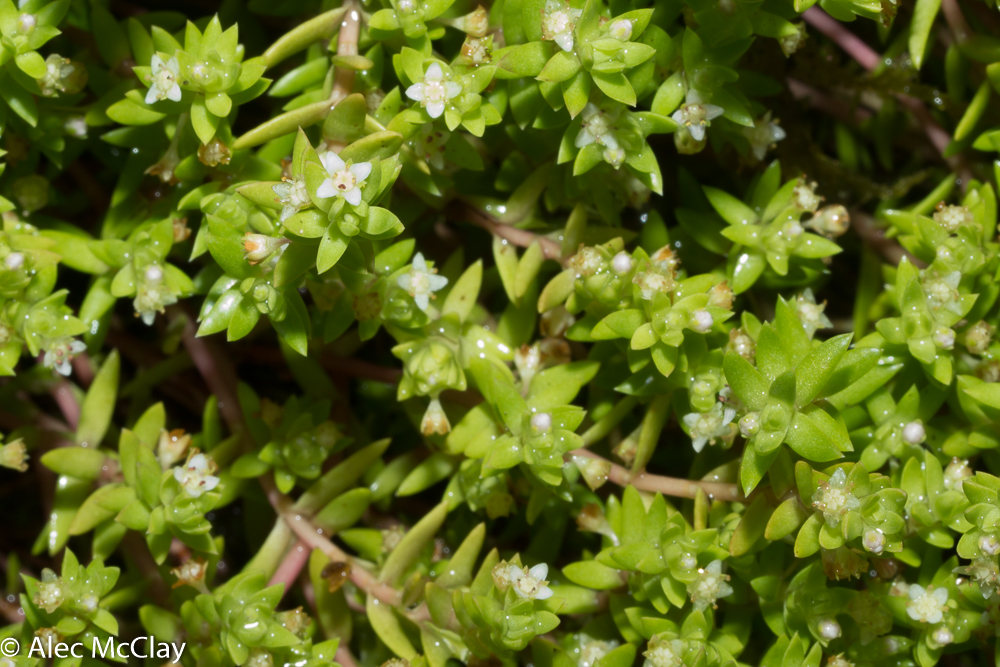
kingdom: Plantae
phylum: Tracheophyta
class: Magnoliopsida
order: Saxifragales
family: Crassulaceae
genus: Crassula
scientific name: Crassula helmsii
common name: New zealand pigmyweed
